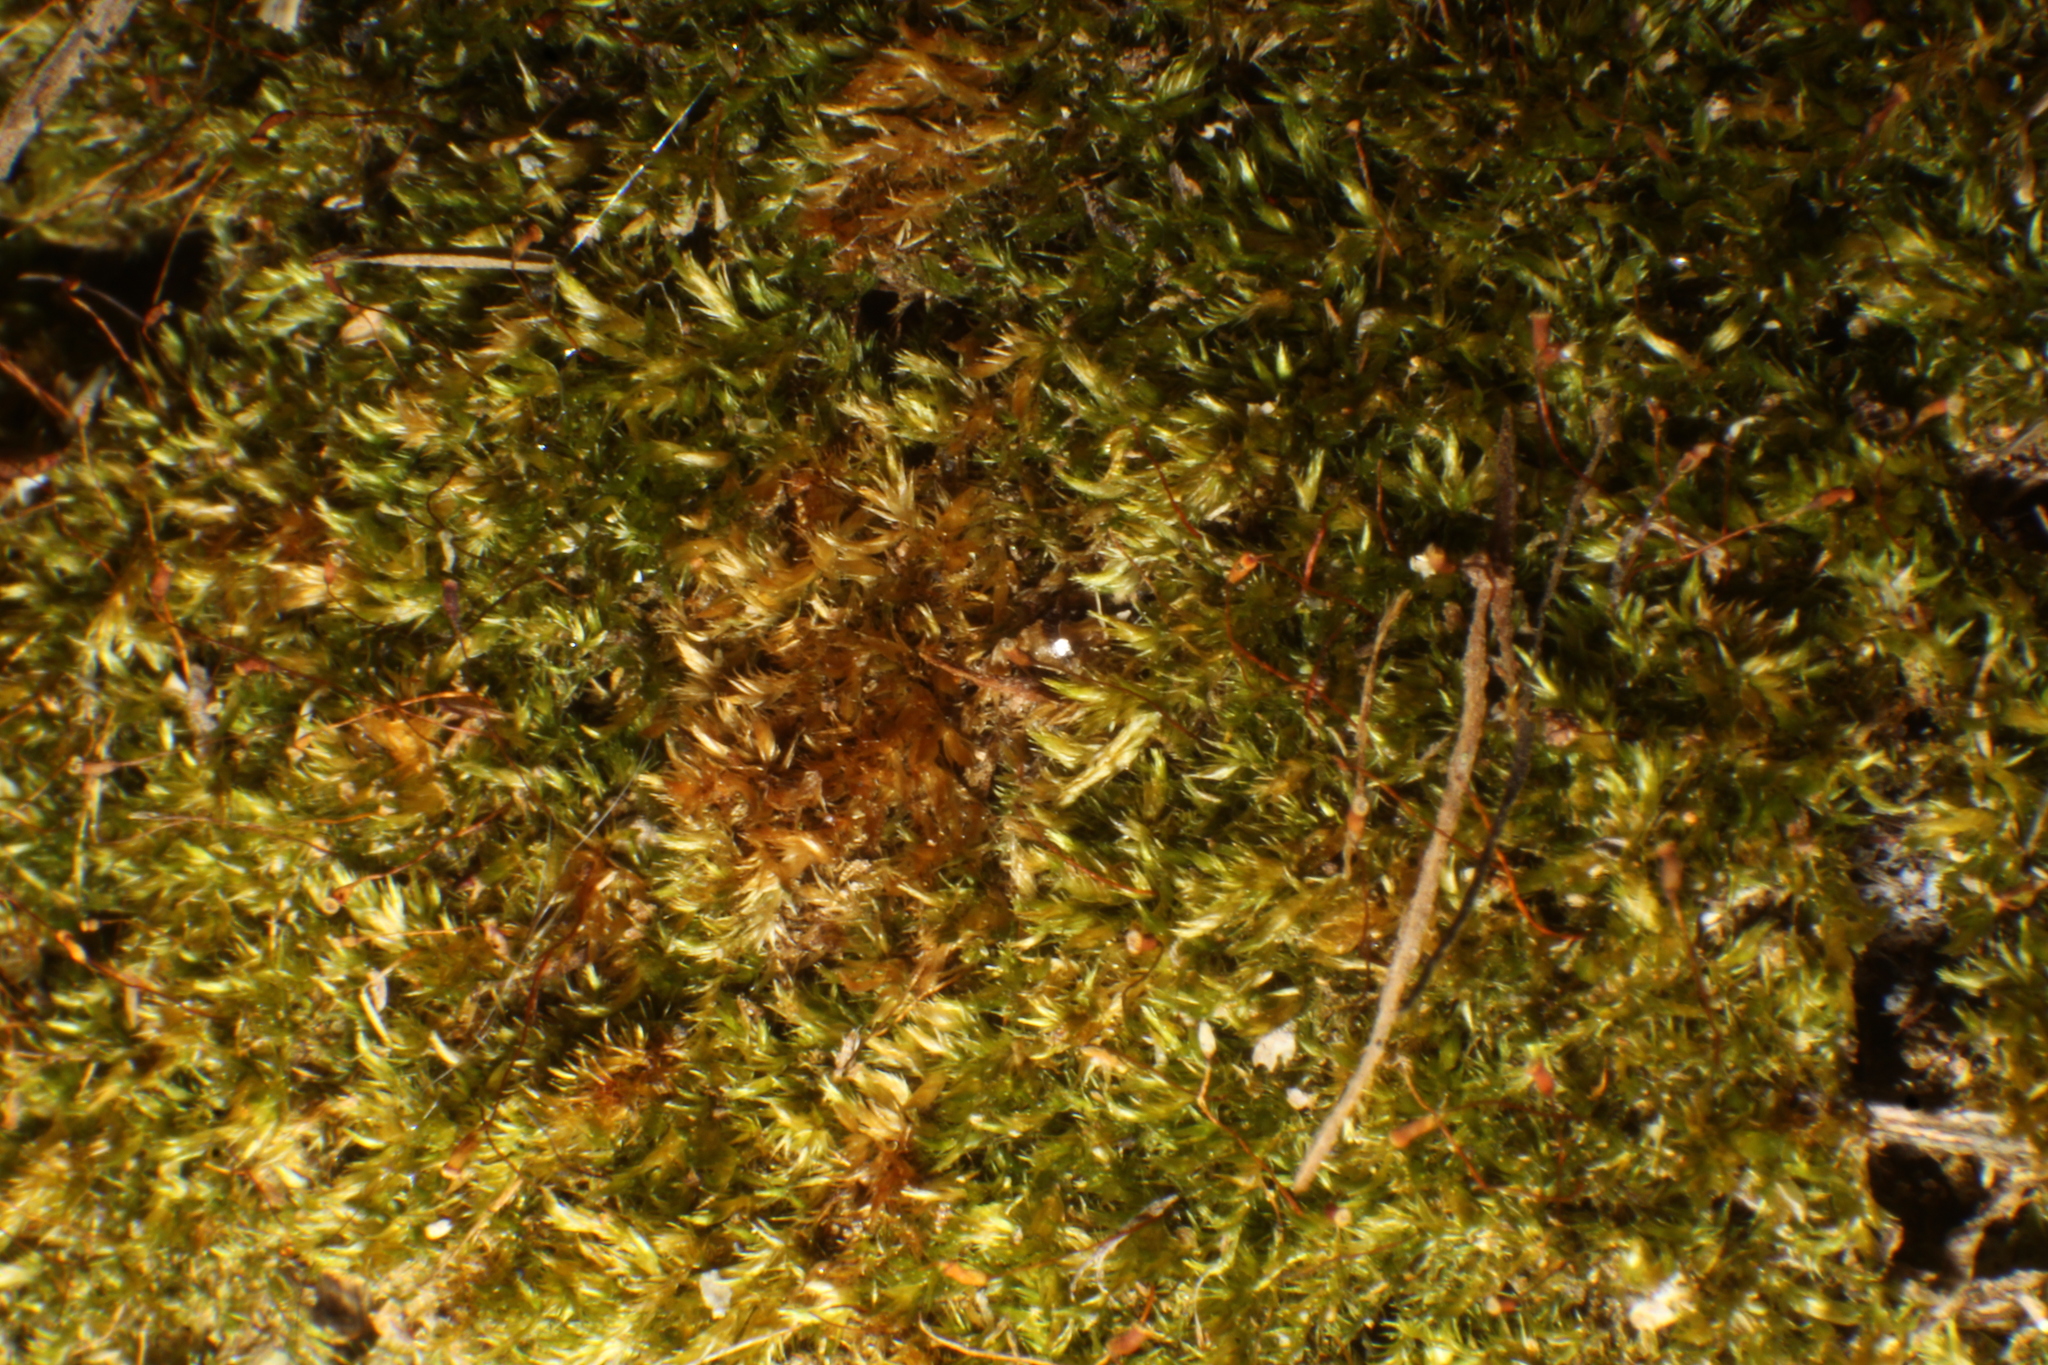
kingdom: Plantae
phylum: Bryophyta
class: Bryopsida
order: Hypnales
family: Sematophyllaceae
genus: Sematophyllum
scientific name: Sematophyllum homomallum
